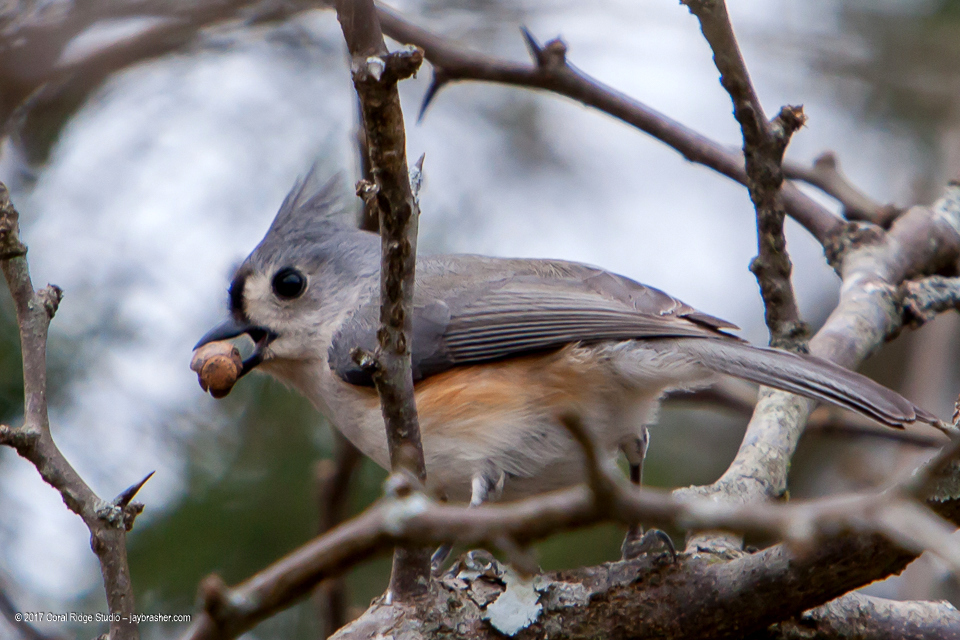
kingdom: Animalia
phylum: Chordata
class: Aves
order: Passeriformes
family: Paridae
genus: Baeolophus
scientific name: Baeolophus bicolor
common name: Tufted titmouse
